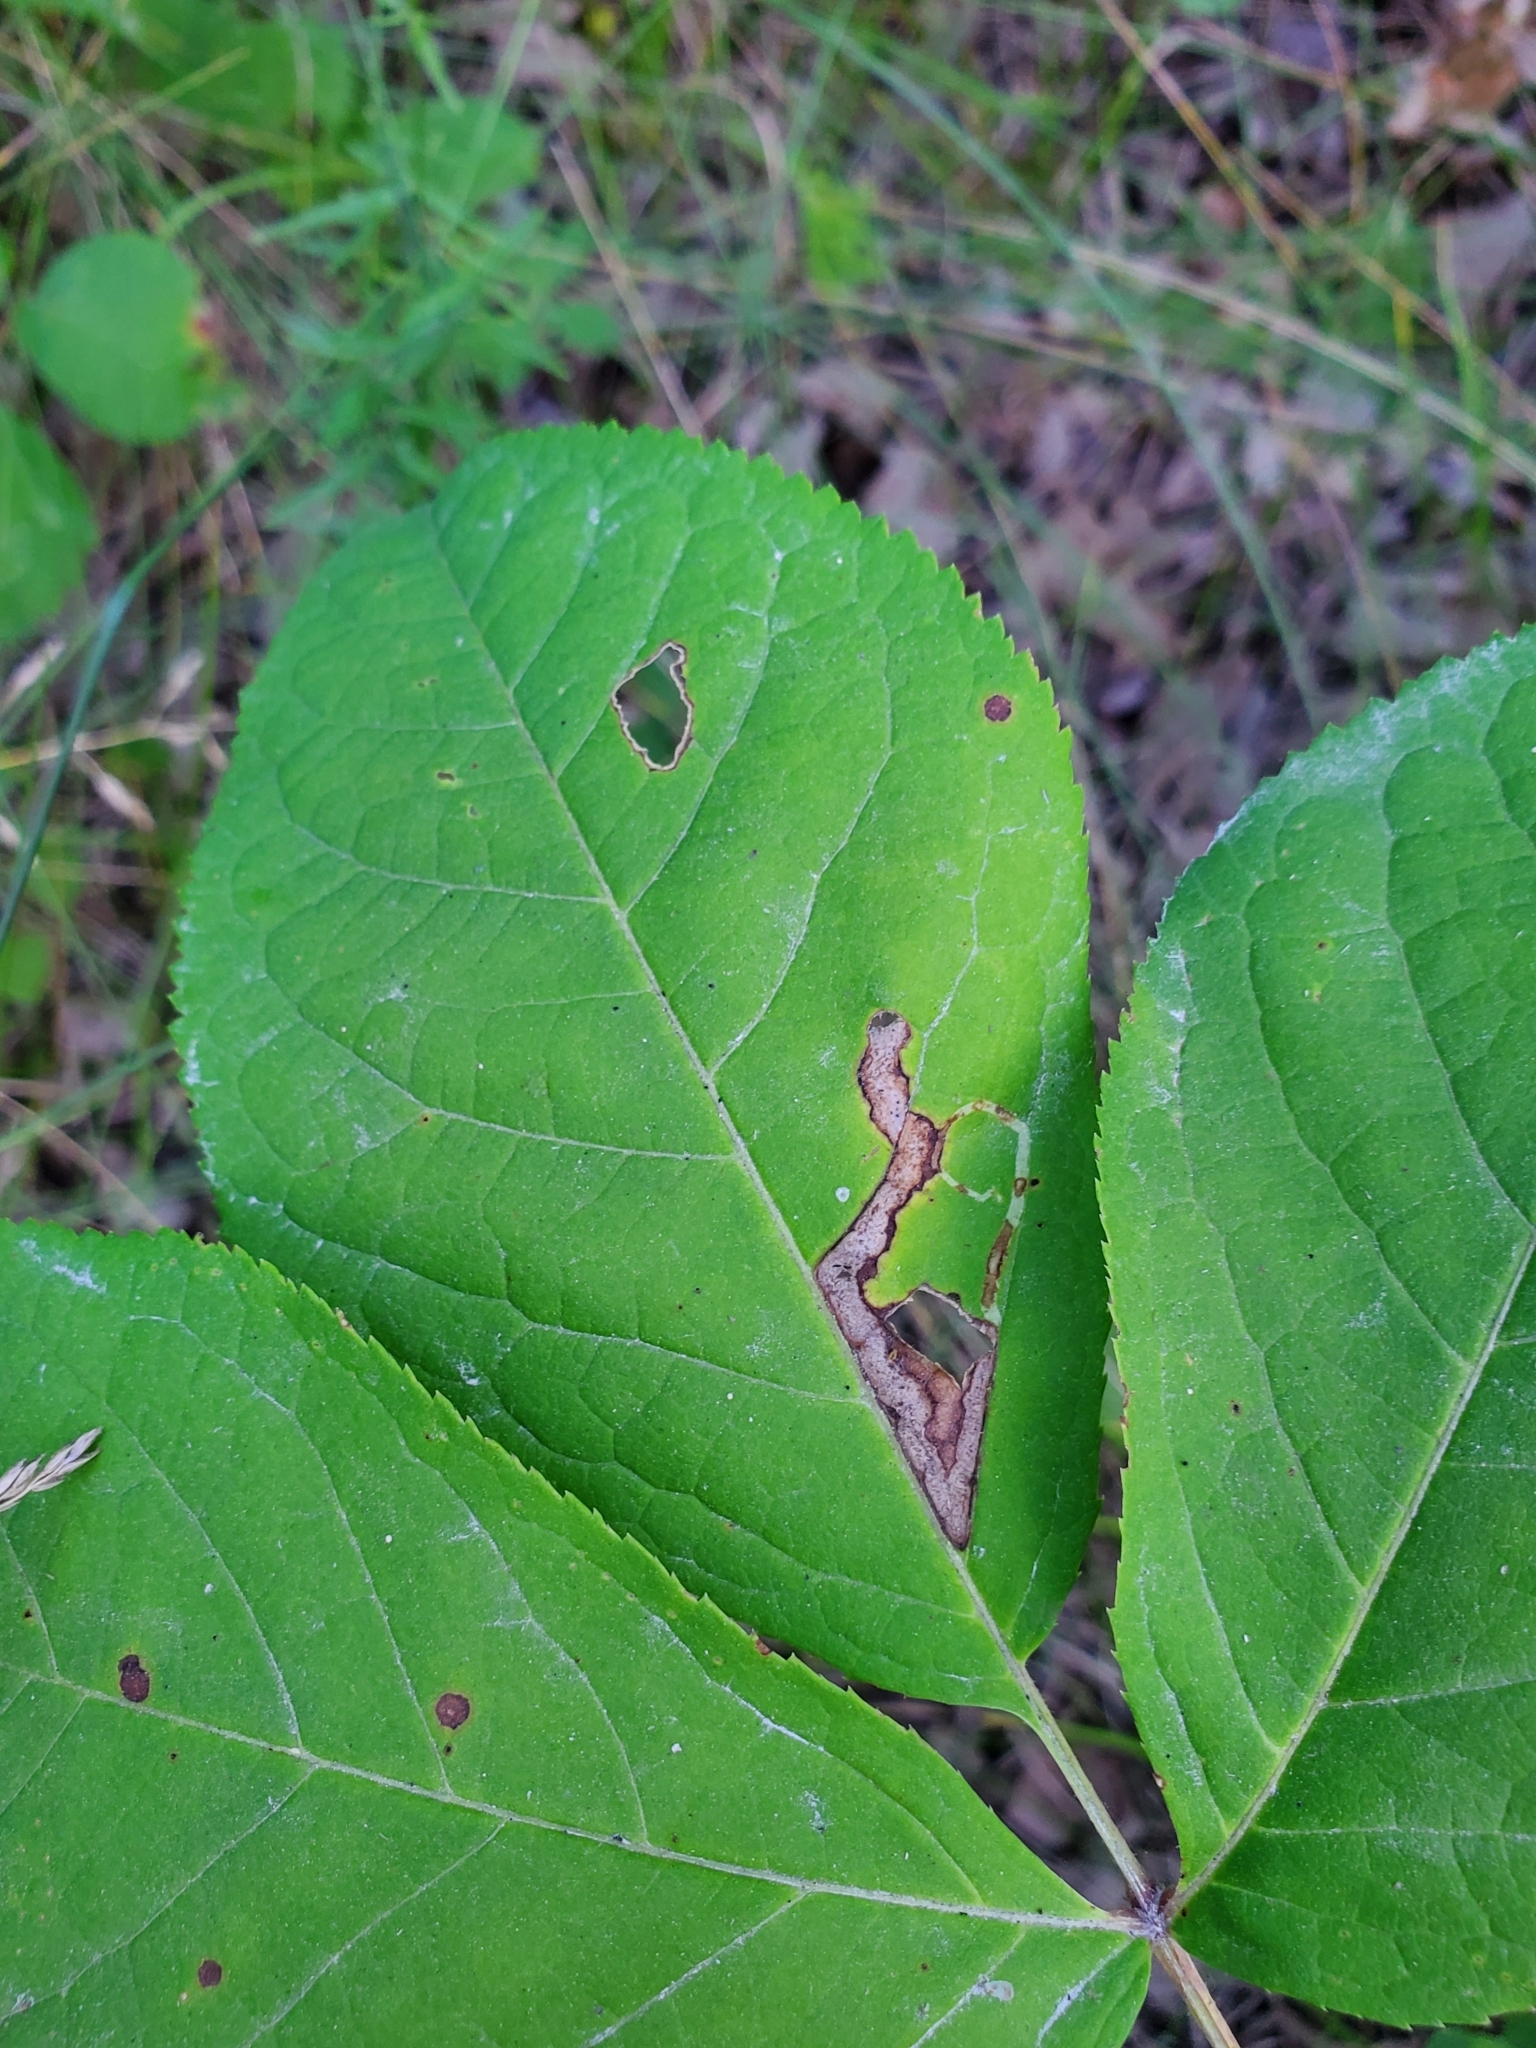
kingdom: Animalia
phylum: Arthropoda
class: Insecta
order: Diptera
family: Agromyzidae
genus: Phytomyza
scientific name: Phytomyza aralivora
